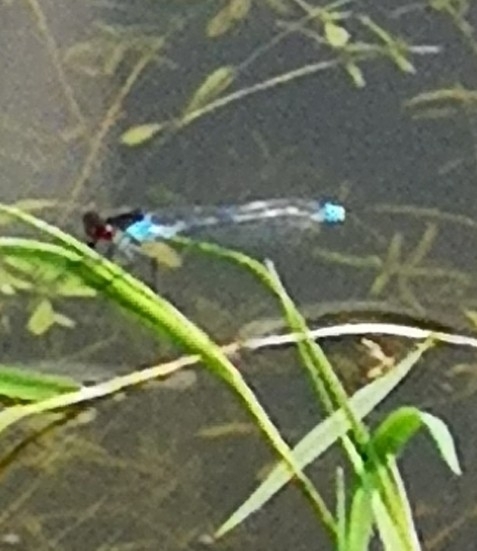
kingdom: Animalia
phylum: Arthropoda
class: Insecta
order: Odonata
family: Coenagrionidae
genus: Erythromma
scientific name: Erythromma najas
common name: Red-eyed damselfly
